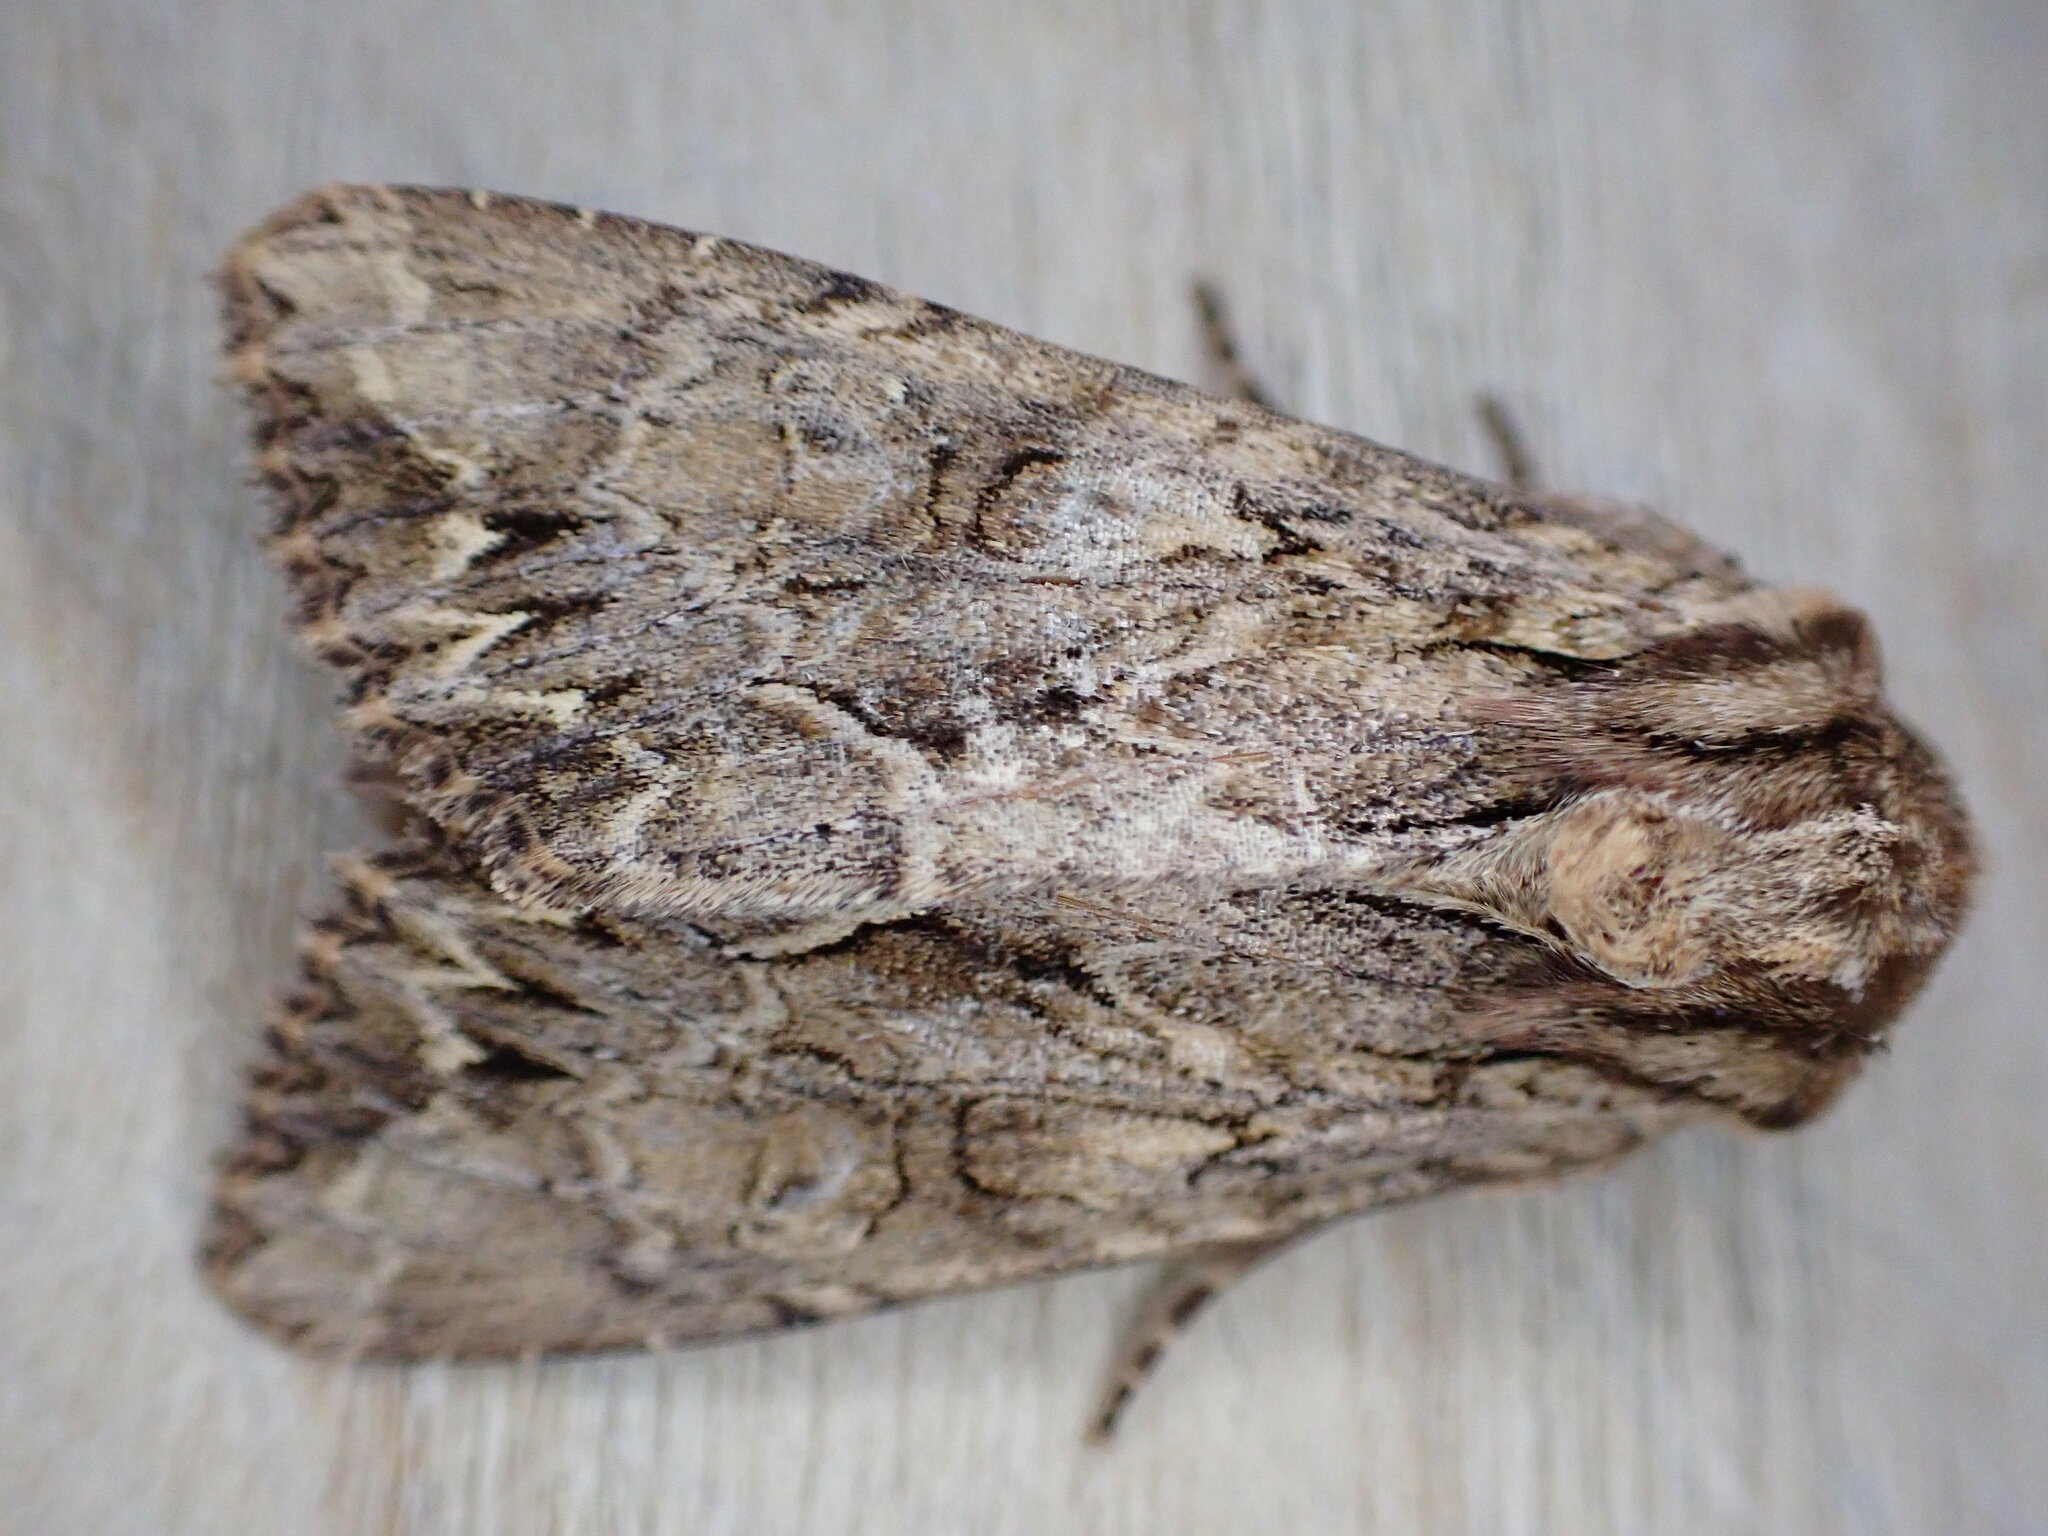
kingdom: Animalia
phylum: Arthropoda
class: Insecta
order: Lepidoptera
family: Noctuidae
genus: Apamea
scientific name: Apamea monoglypha
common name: Dark arches
